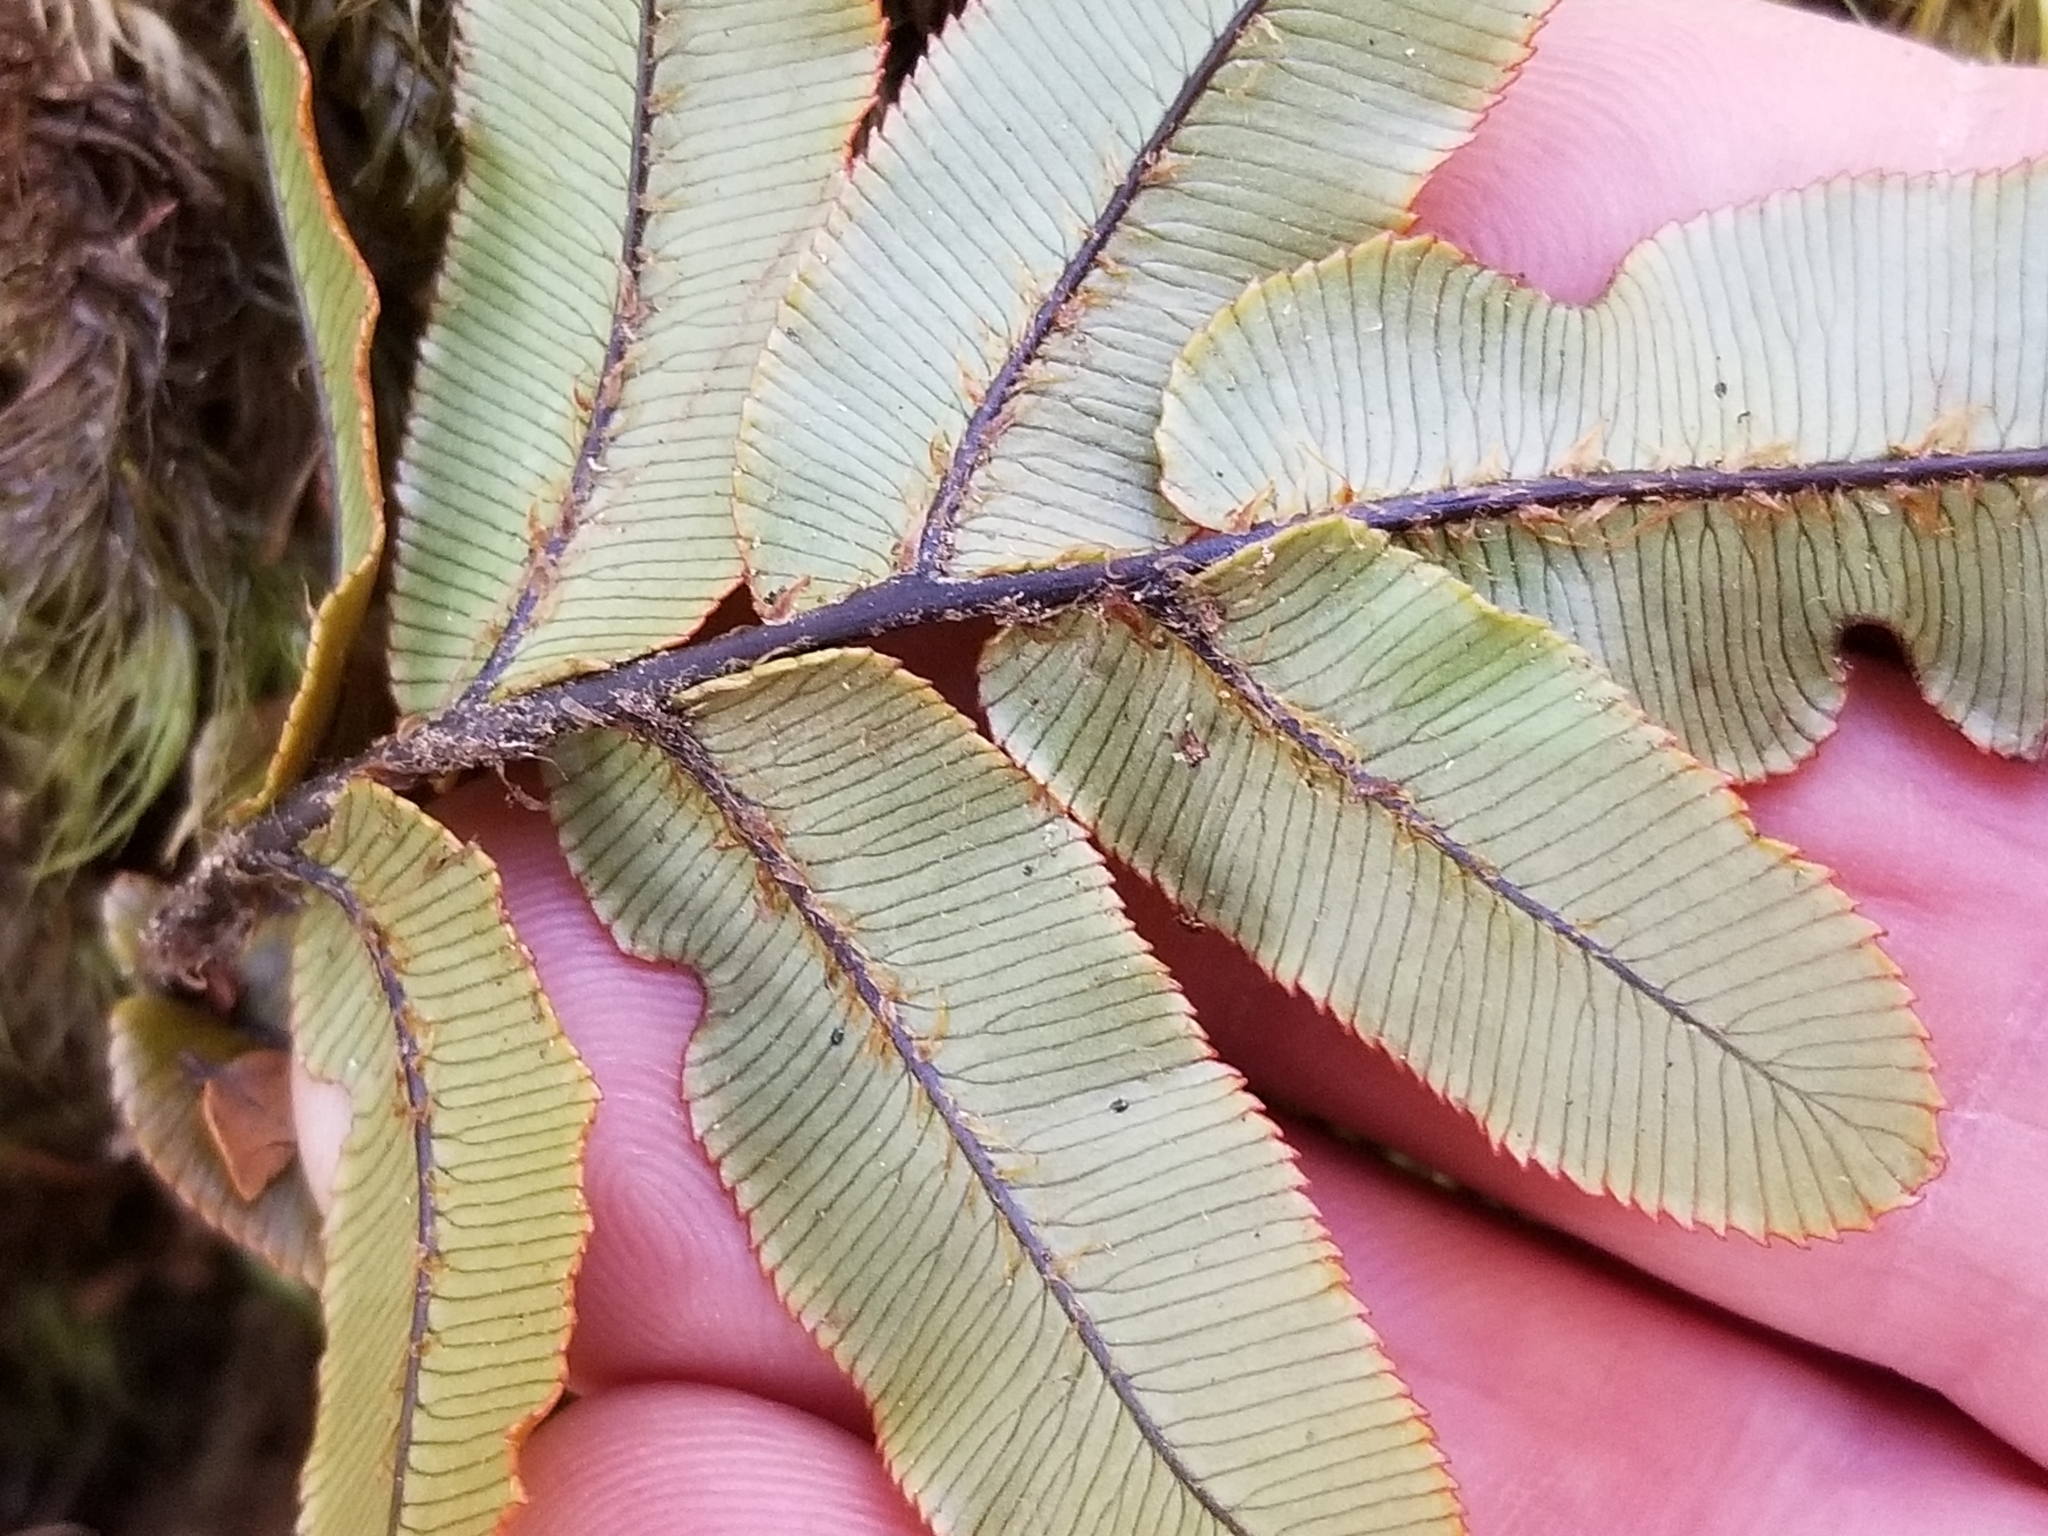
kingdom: Plantae
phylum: Tracheophyta
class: Polypodiopsida
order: Polypodiales
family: Blechnaceae
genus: Parablechnum
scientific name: Parablechnum procerum
